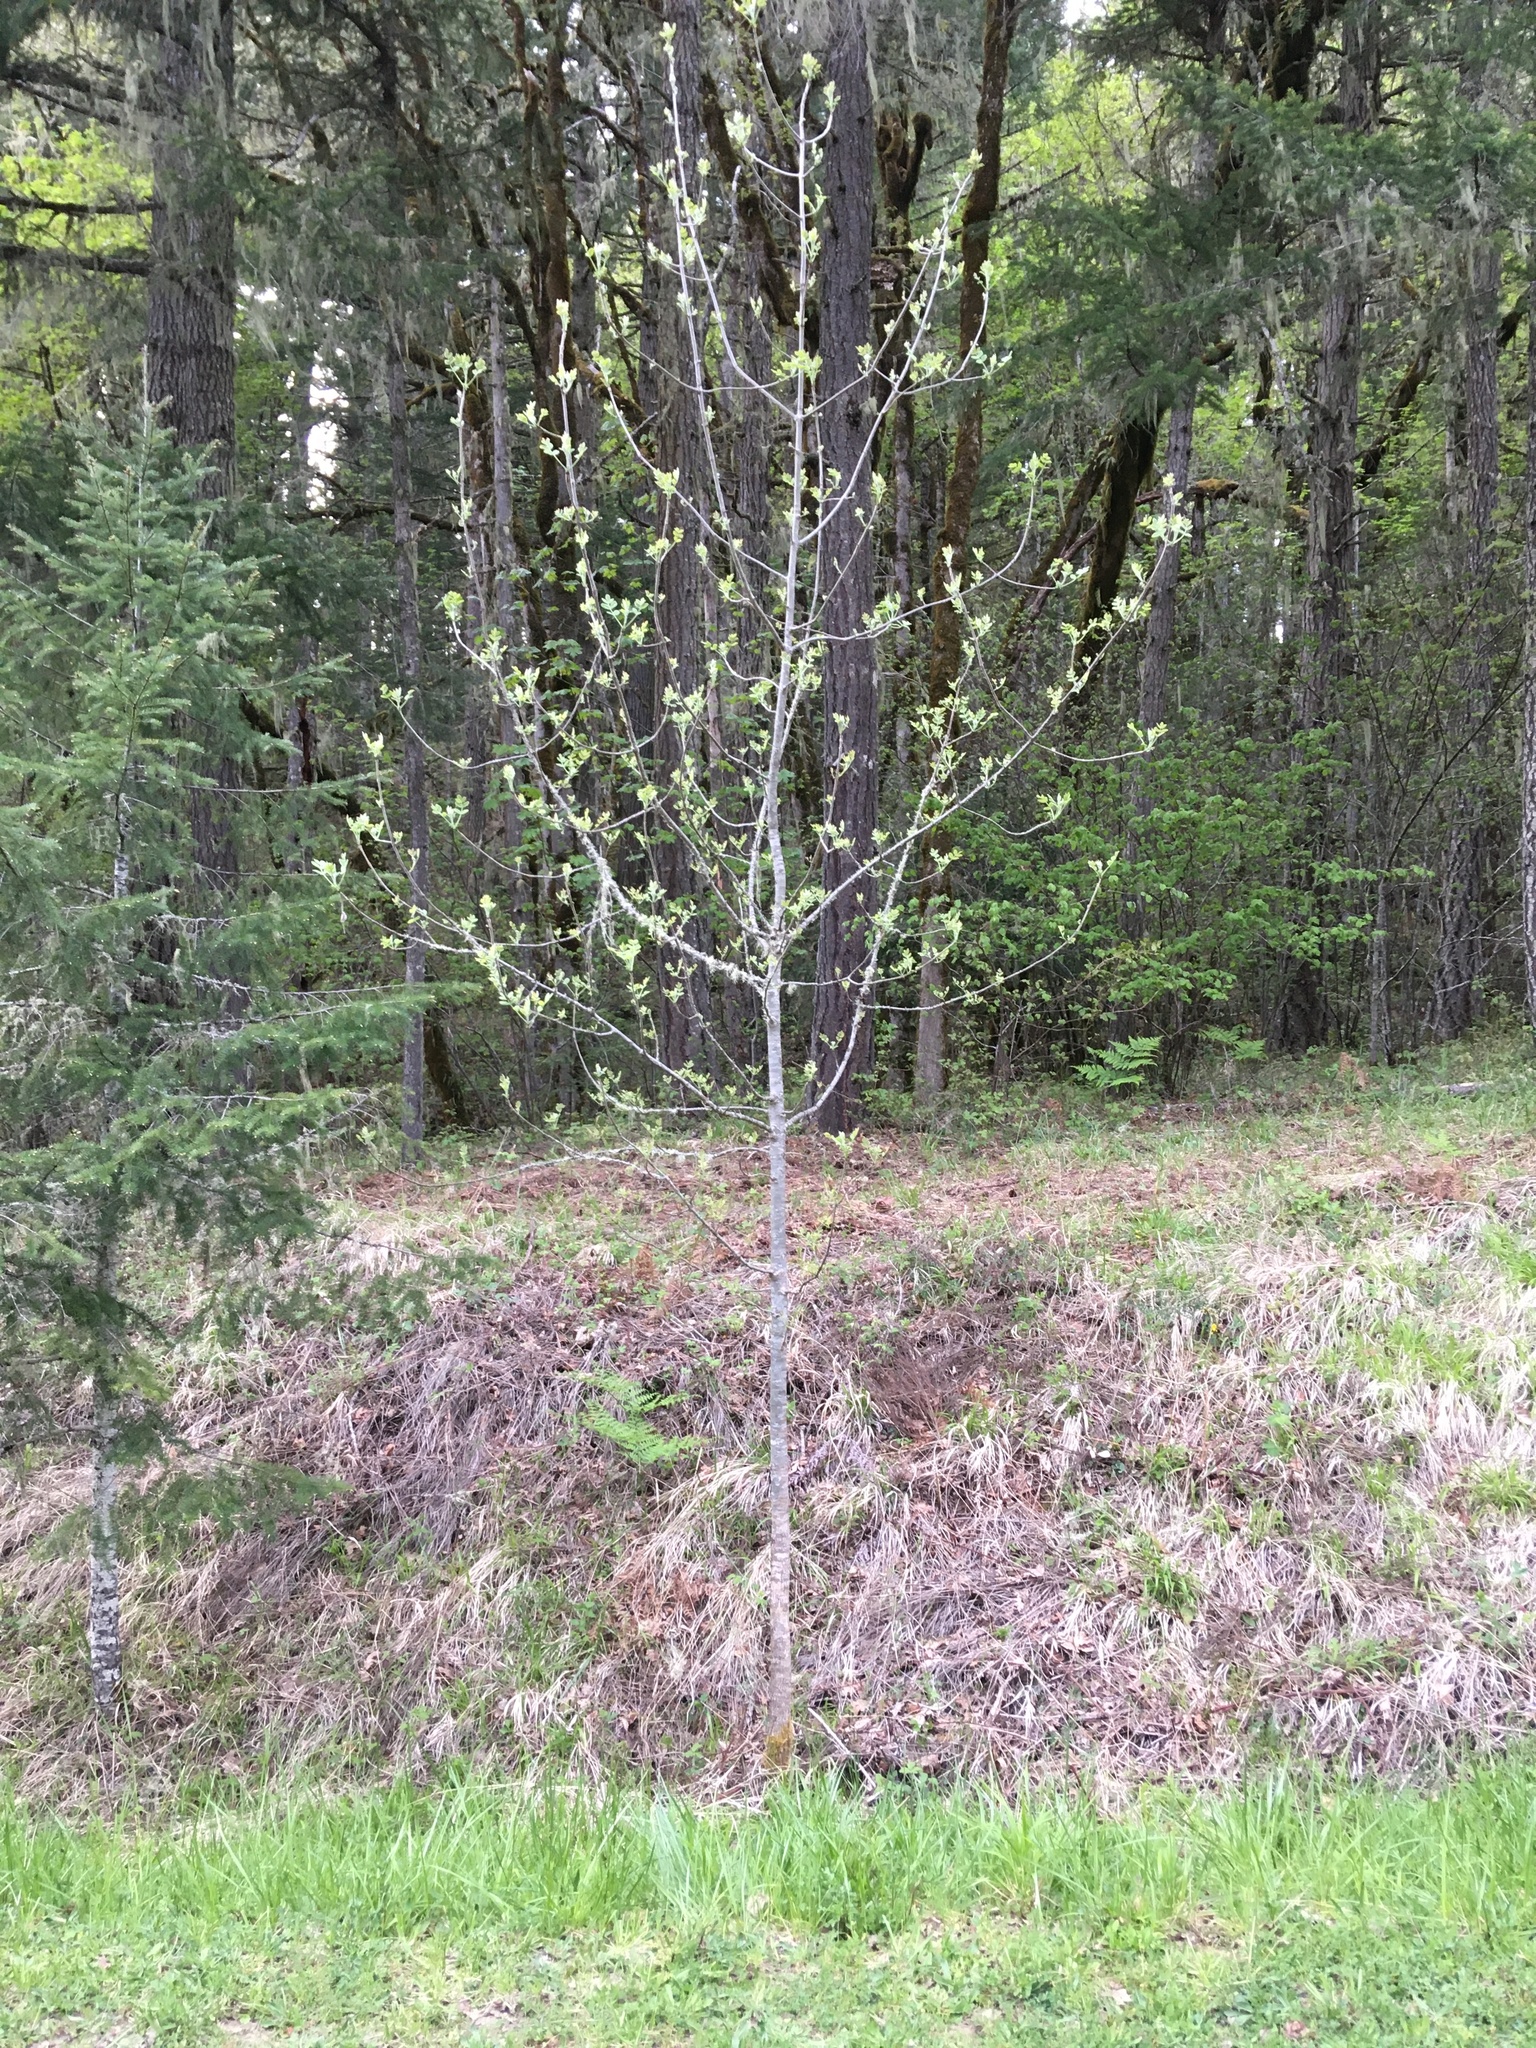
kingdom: Plantae
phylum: Tracheophyta
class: Magnoliopsida
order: Lamiales
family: Oleaceae
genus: Fraxinus
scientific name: Fraxinus latifolia
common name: Oregon ash
